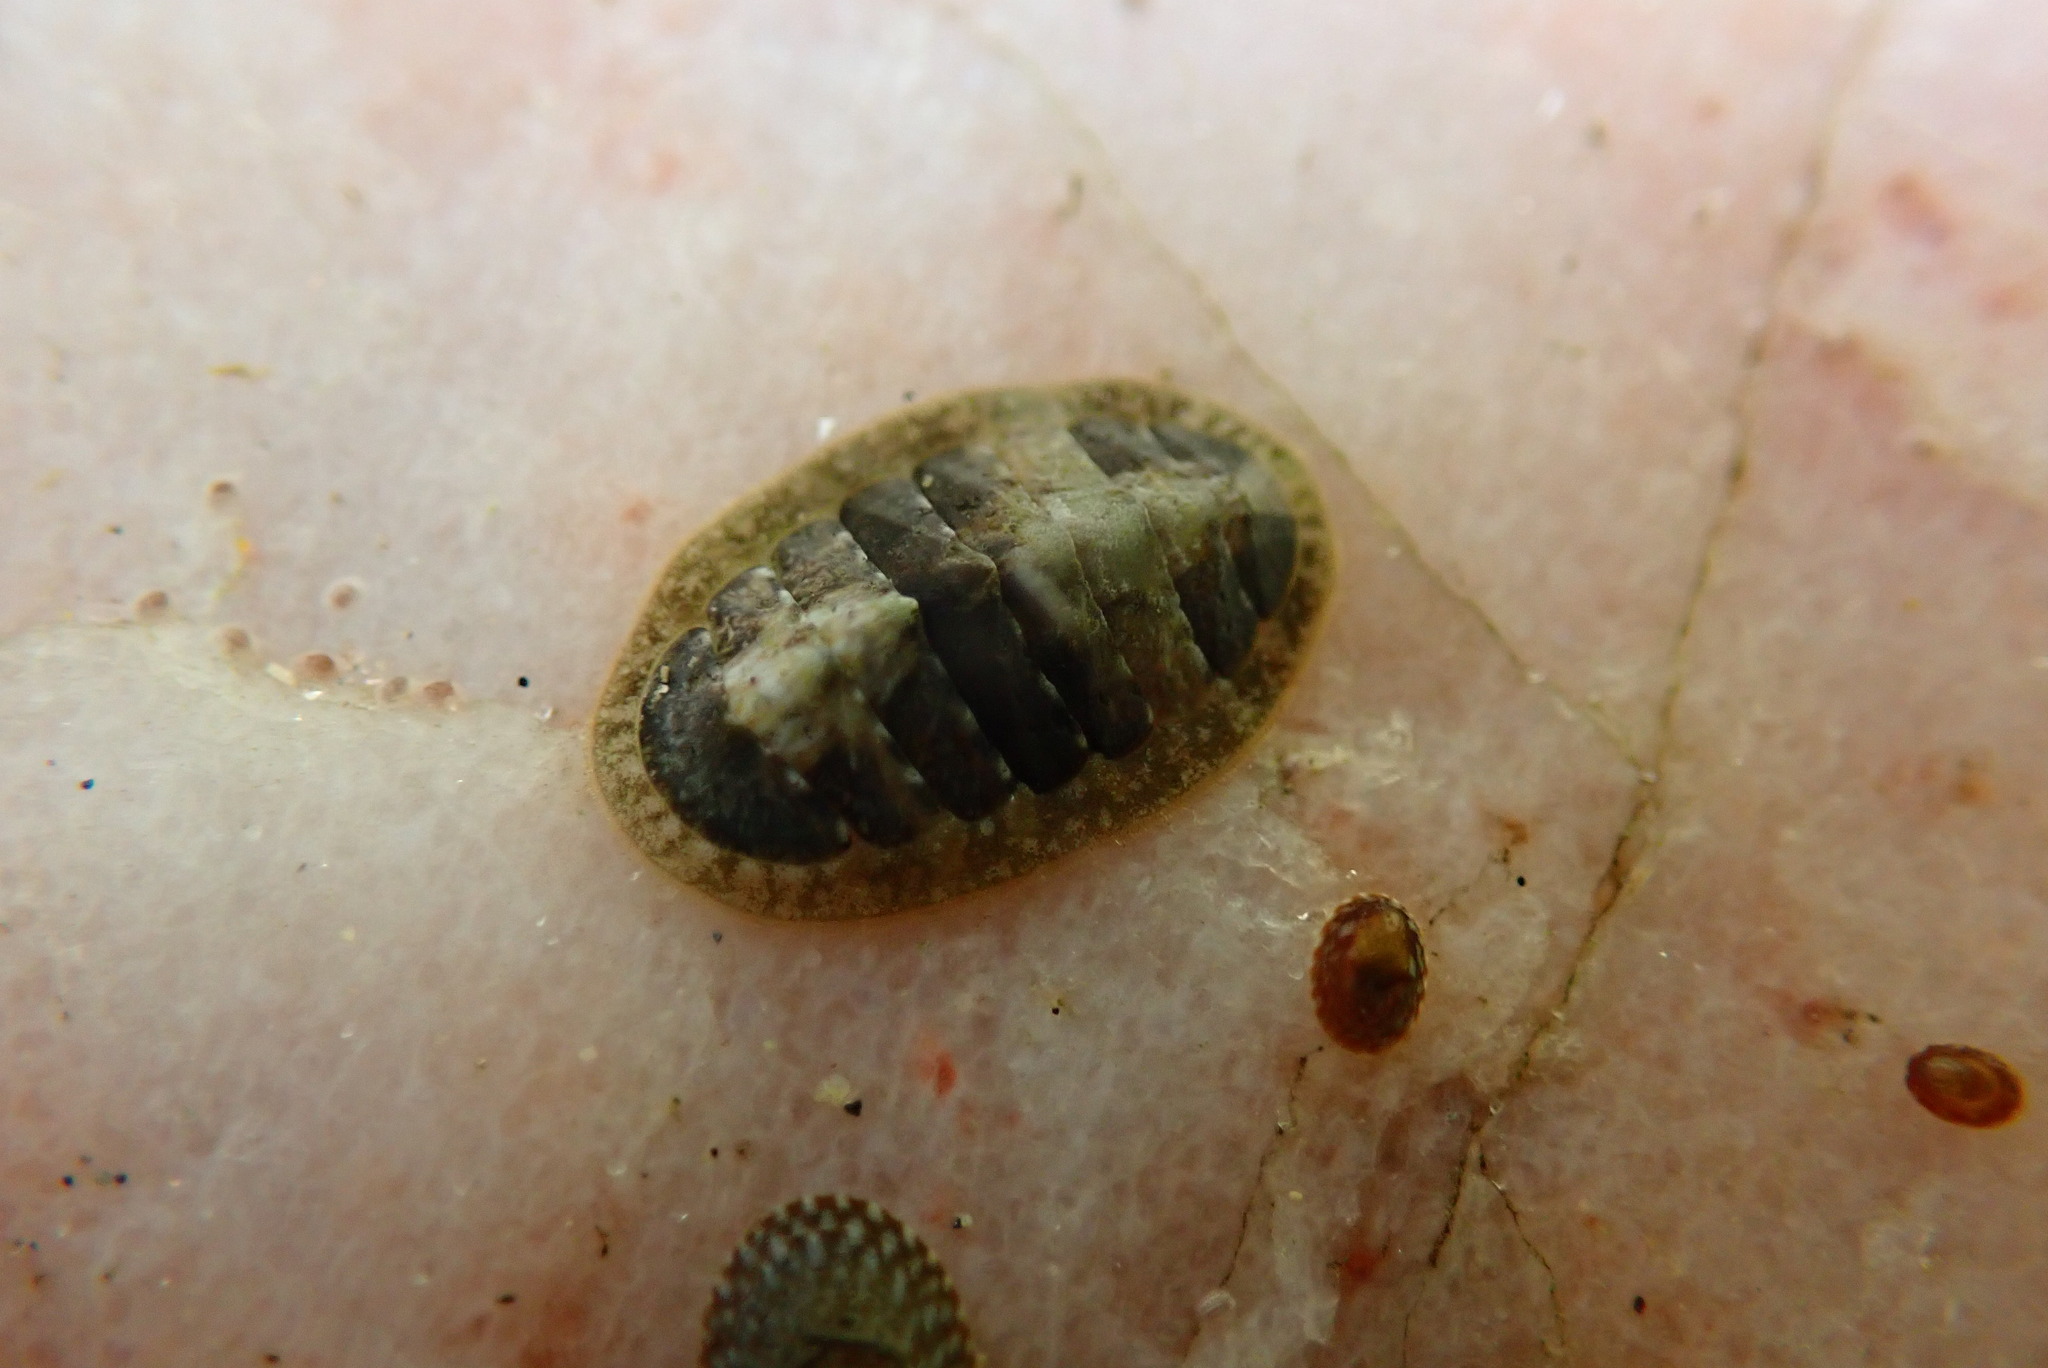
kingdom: Animalia
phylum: Mollusca
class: Polyplacophora
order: Chitonida
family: Tonicellidae
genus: Cyanoplax
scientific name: Cyanoplax keepiana
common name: Keep's chiton
